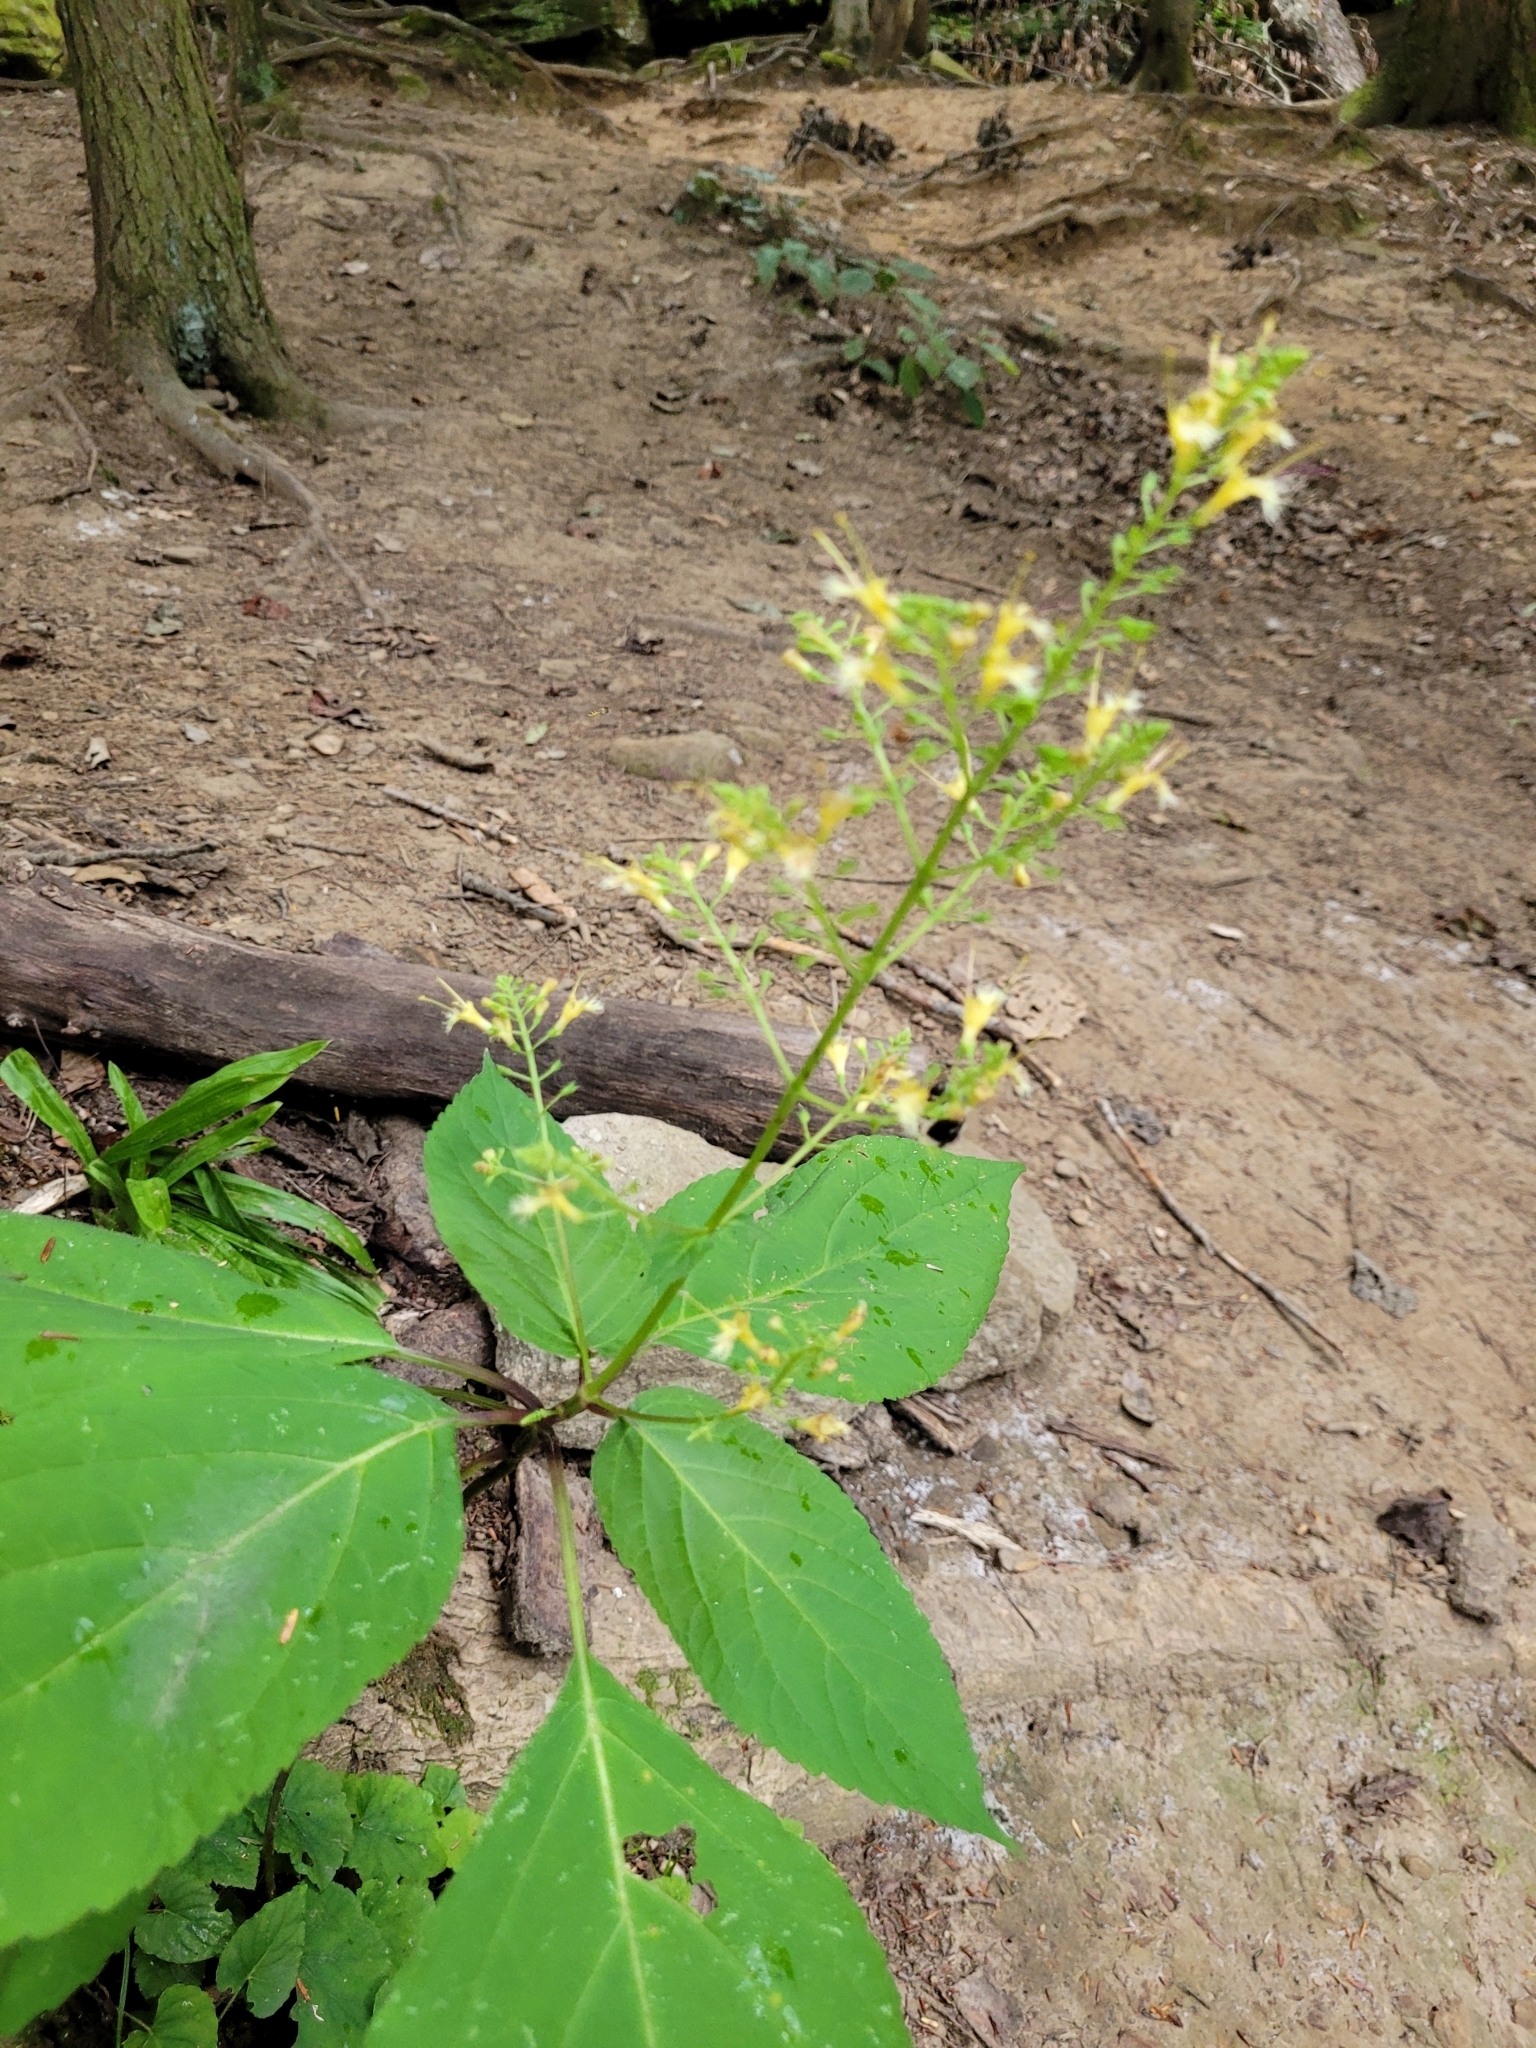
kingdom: Plantae
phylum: Tracheophyta
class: Magnoliopsida
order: Lamiales
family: Lamiaceae
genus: Collinsonia
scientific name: Collinsonia canadensis
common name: Northern horsebalm
